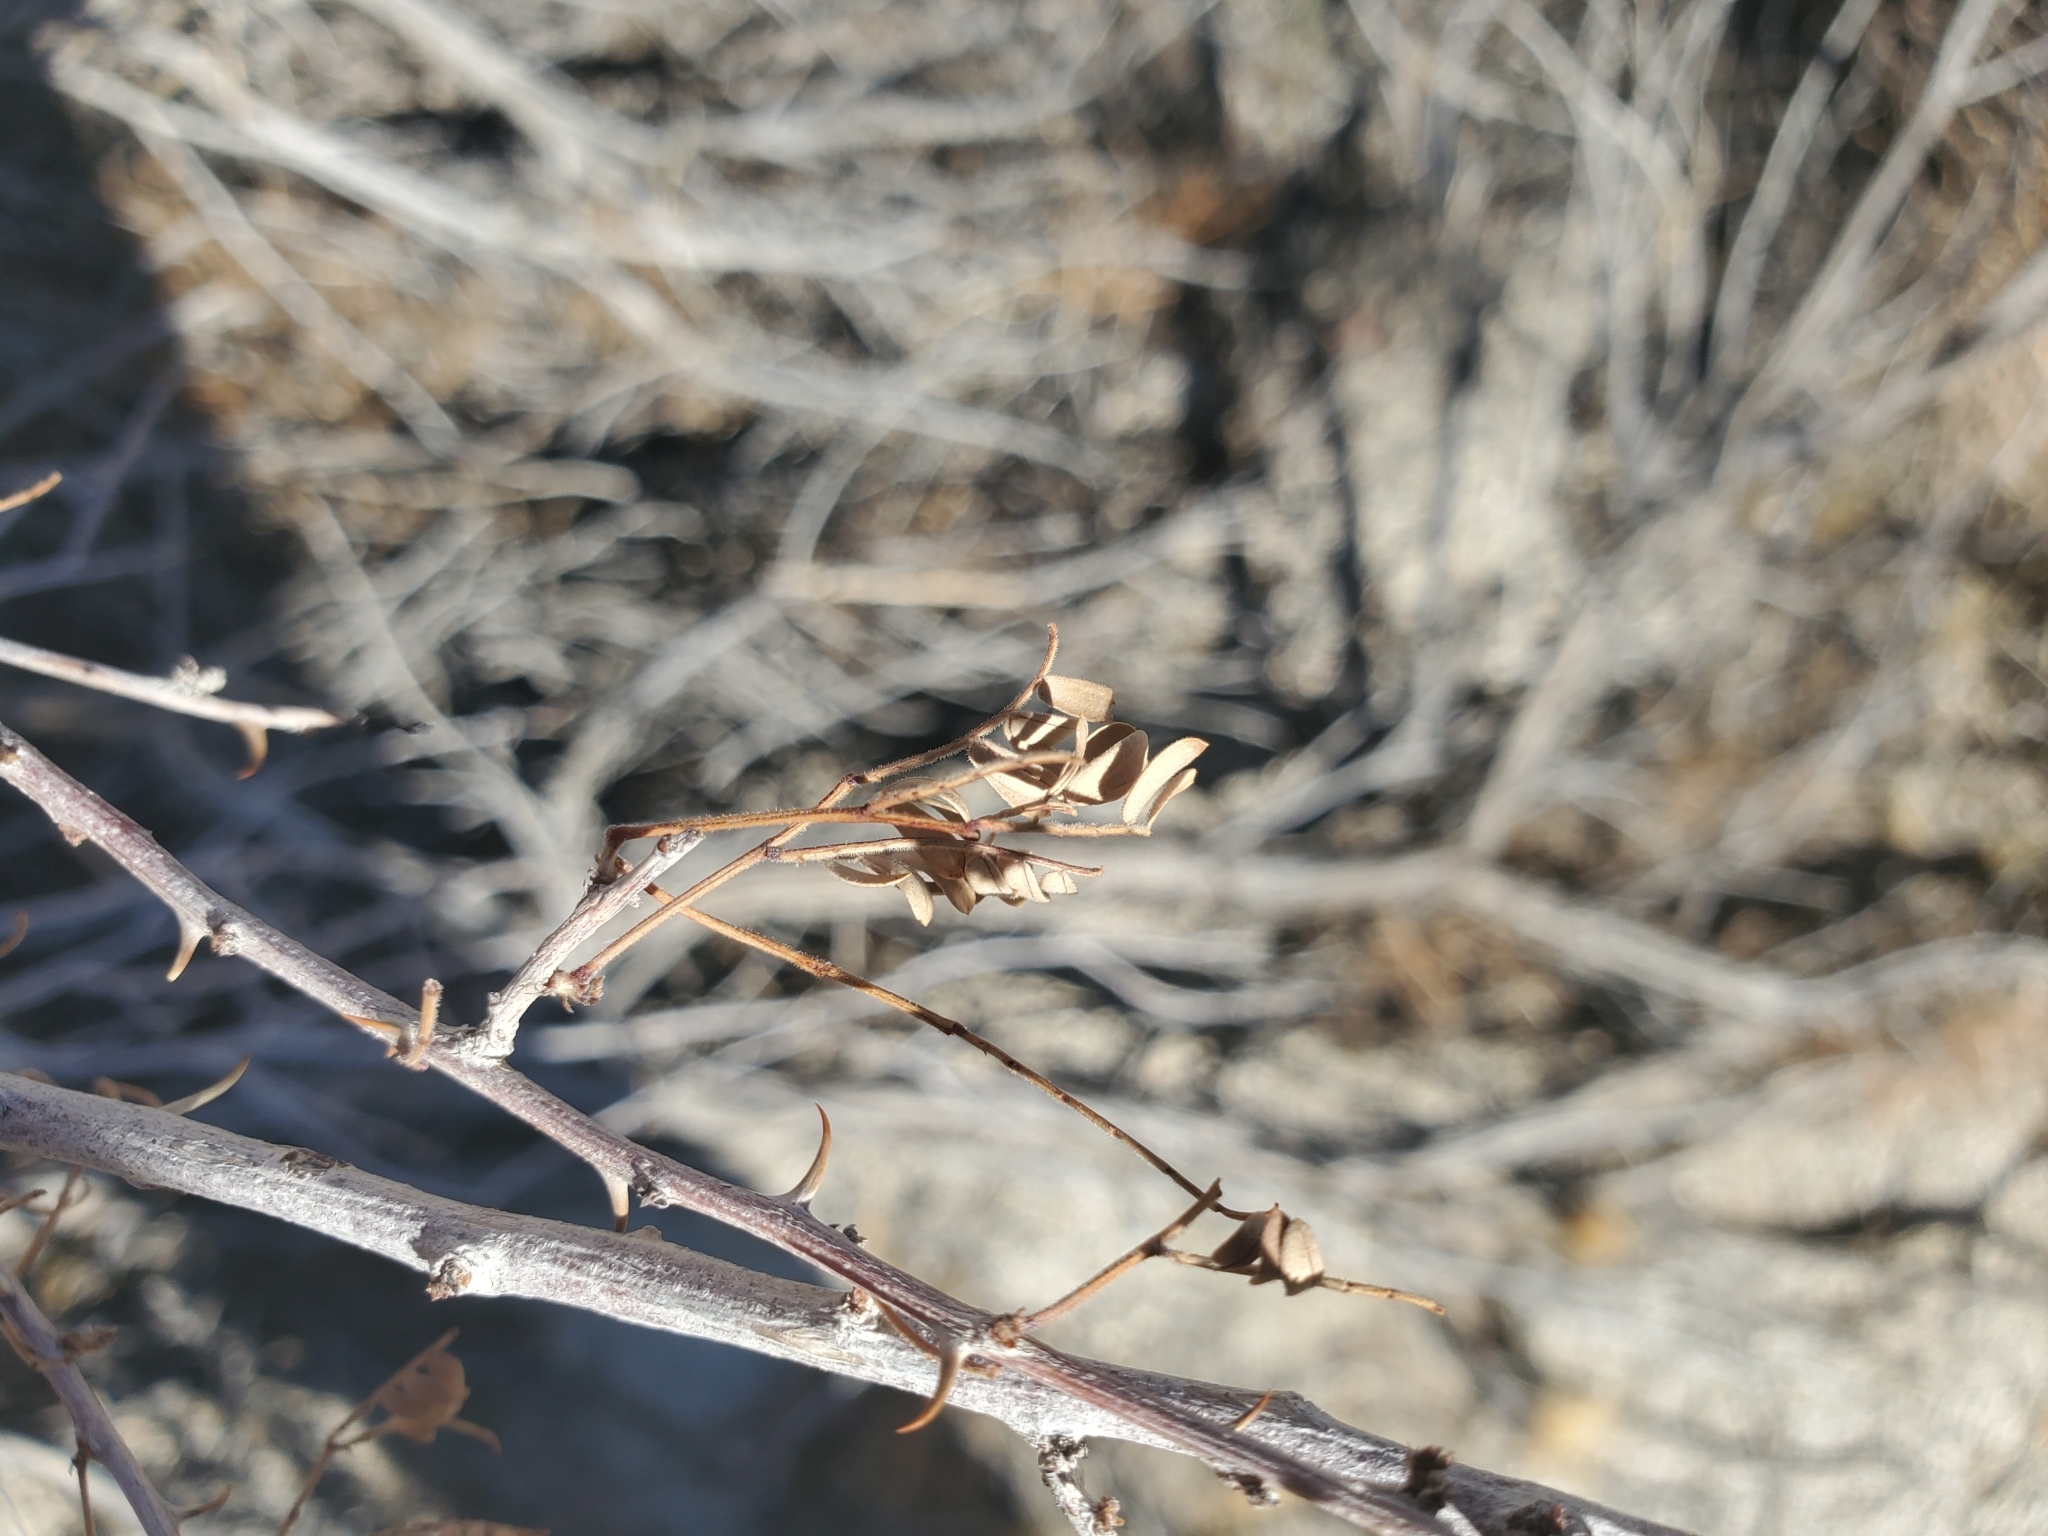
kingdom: Plantae
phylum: Tracheophyta
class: Magnoliopsida
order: Fabales
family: Fabaceae
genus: Senegalia
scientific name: Senegalia greggii
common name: Texas-mimosa
